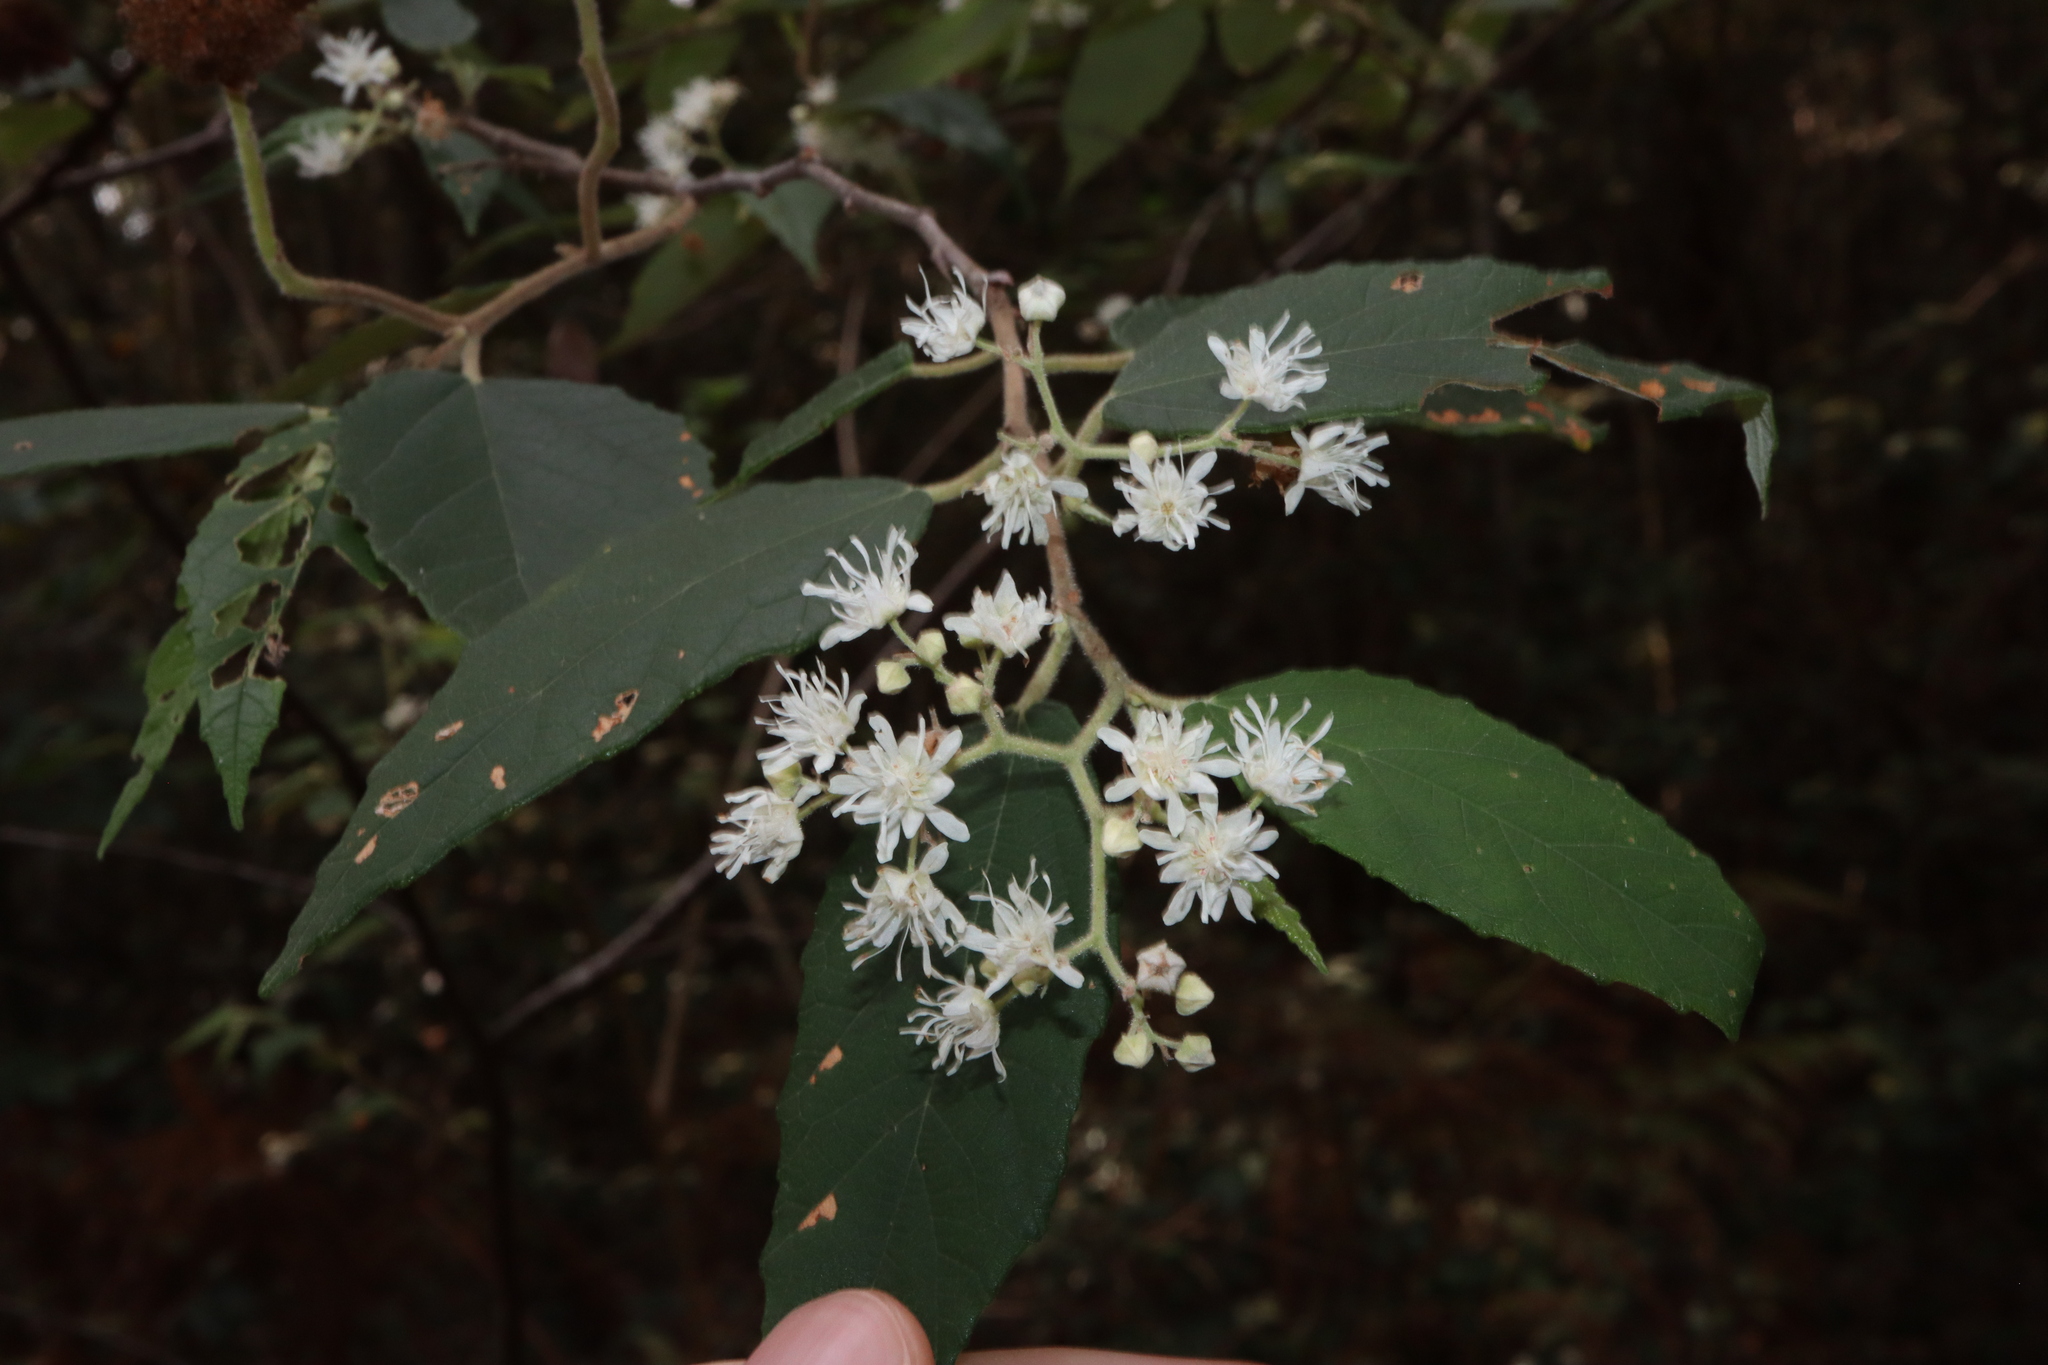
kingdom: Plantae
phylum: Tracheophyta
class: Magnoliopsida
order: Malvales
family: Malvaceae
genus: Androcalva
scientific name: Androcalva fraseri
